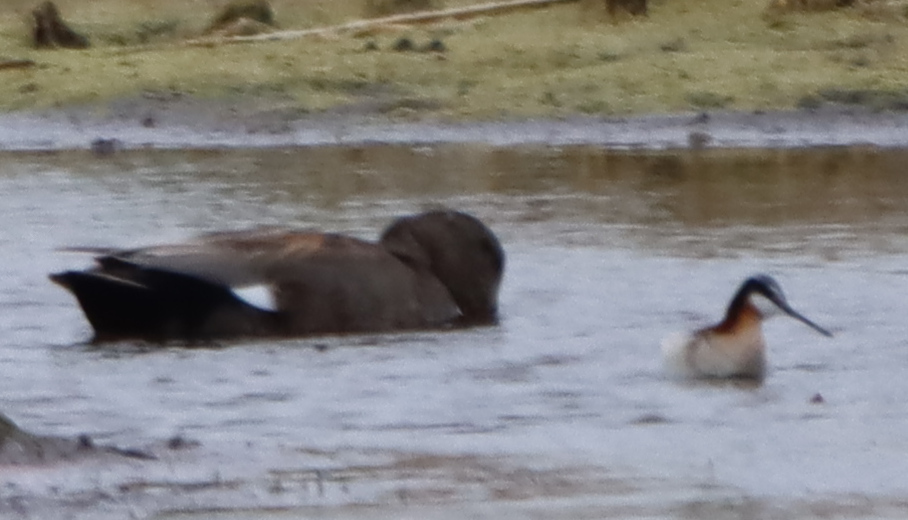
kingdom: Animalia
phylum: Chordata
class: Aves
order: Charadriiformes
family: Scolopacidae
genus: Phalaropus
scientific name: Phalaropus tricolor
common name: Wilson's phalarope
